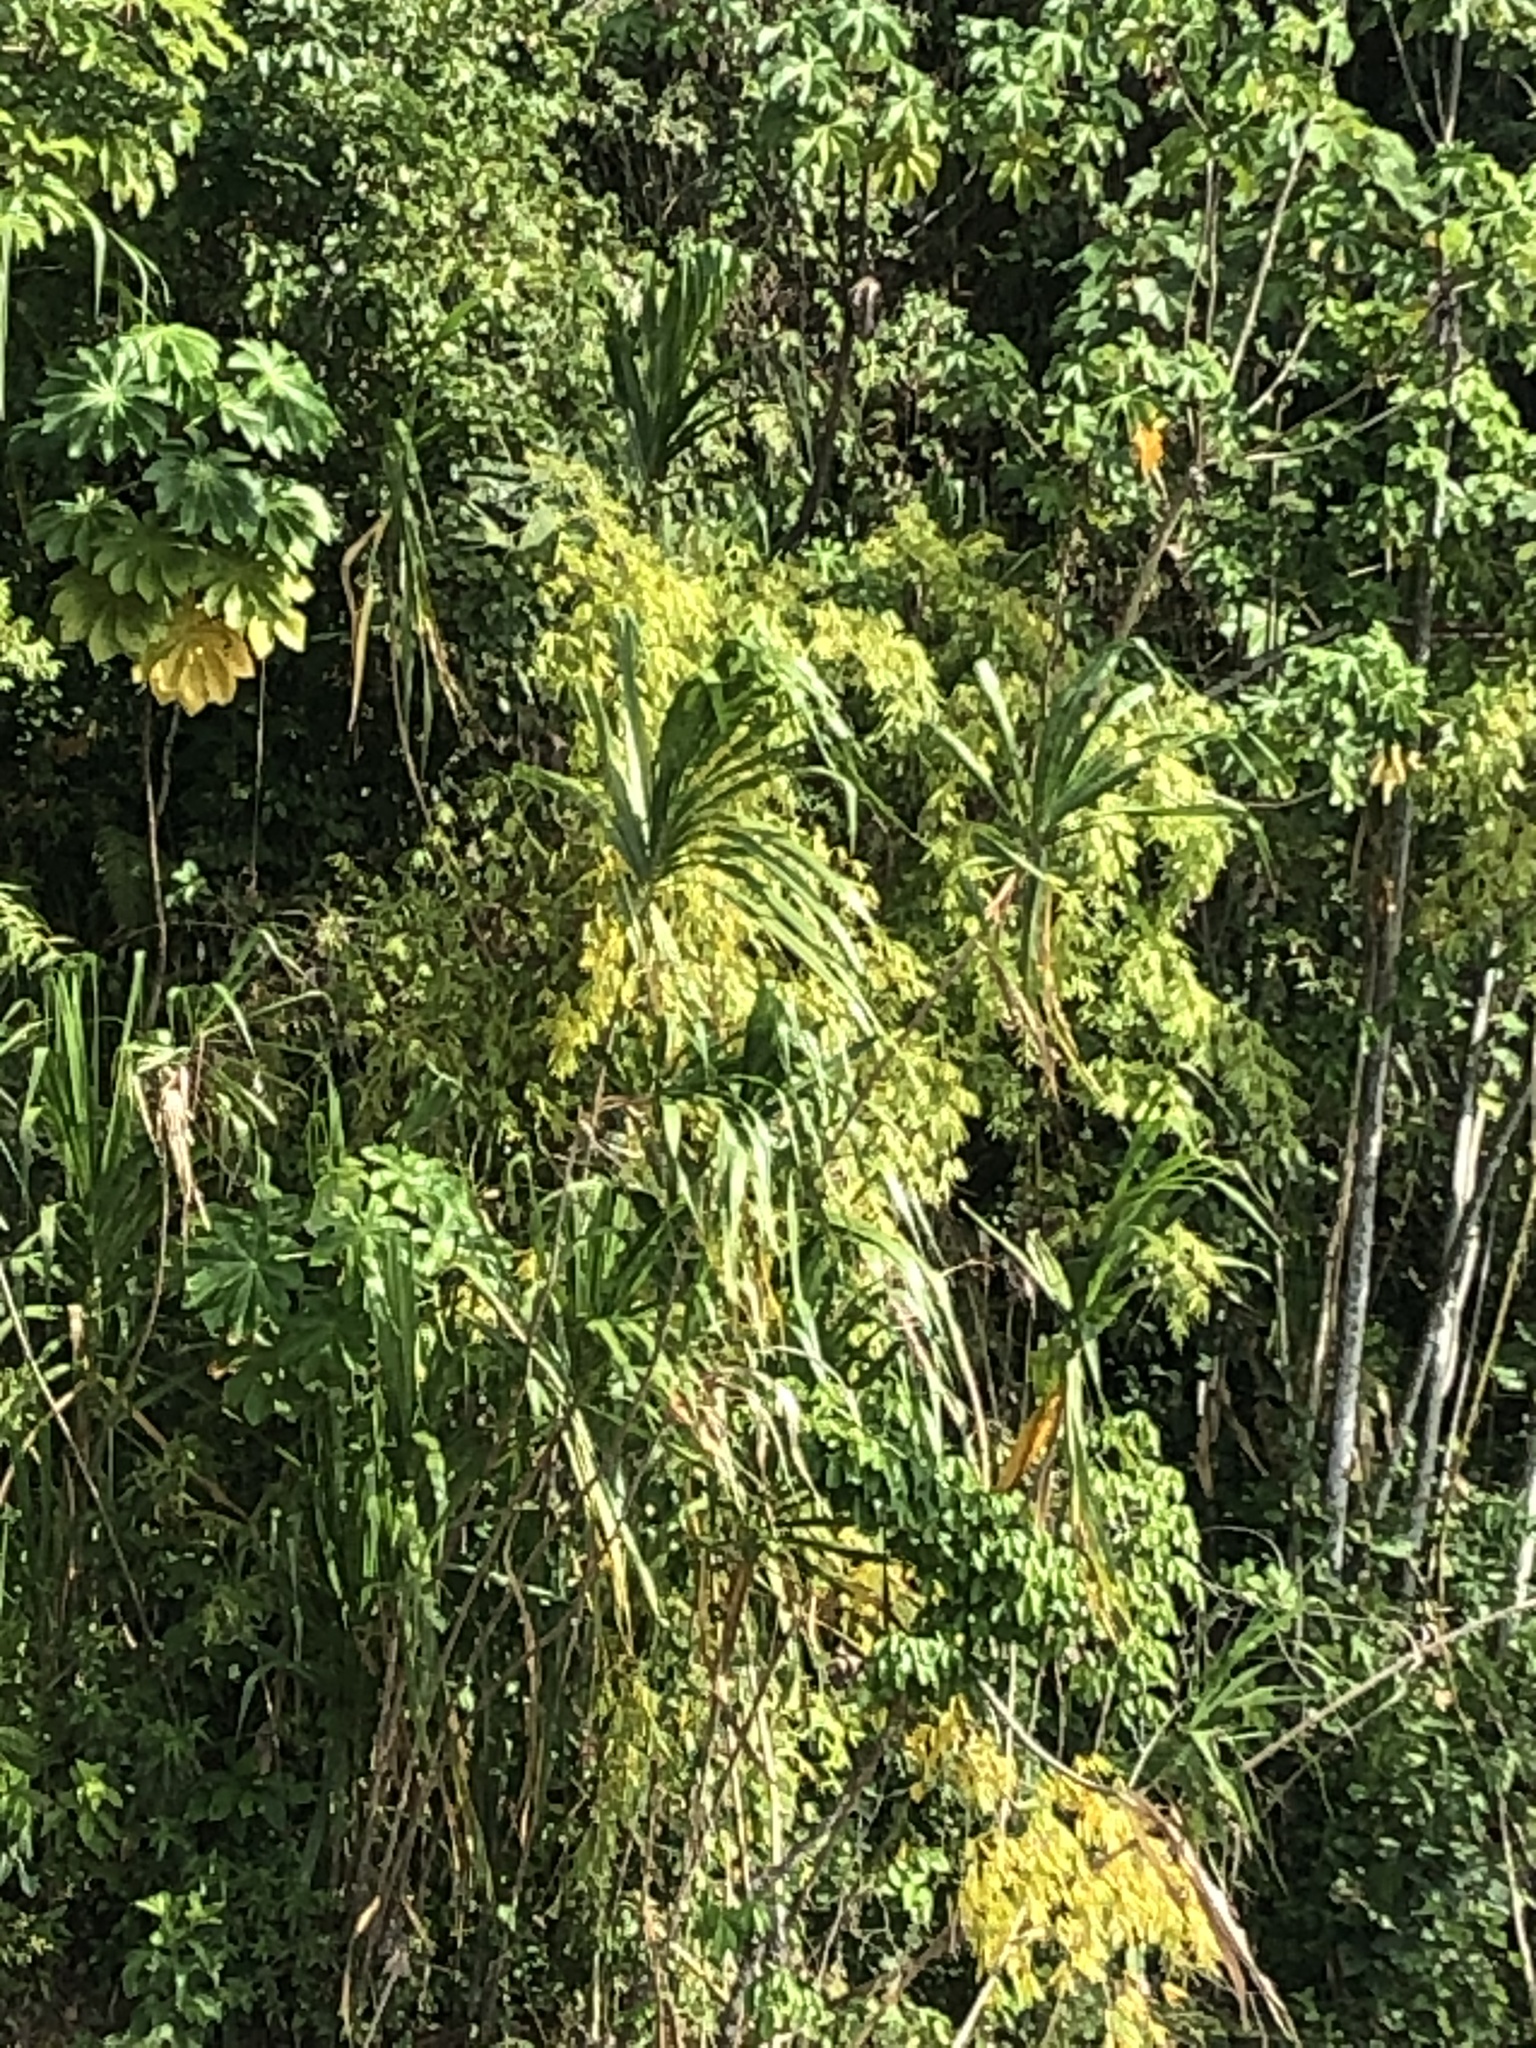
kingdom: Plantae
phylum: Tracheophyta
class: Liliopsida
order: Poales
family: Poaceae
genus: Gynerium
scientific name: Gynerium sagittatum
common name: Wild cane
